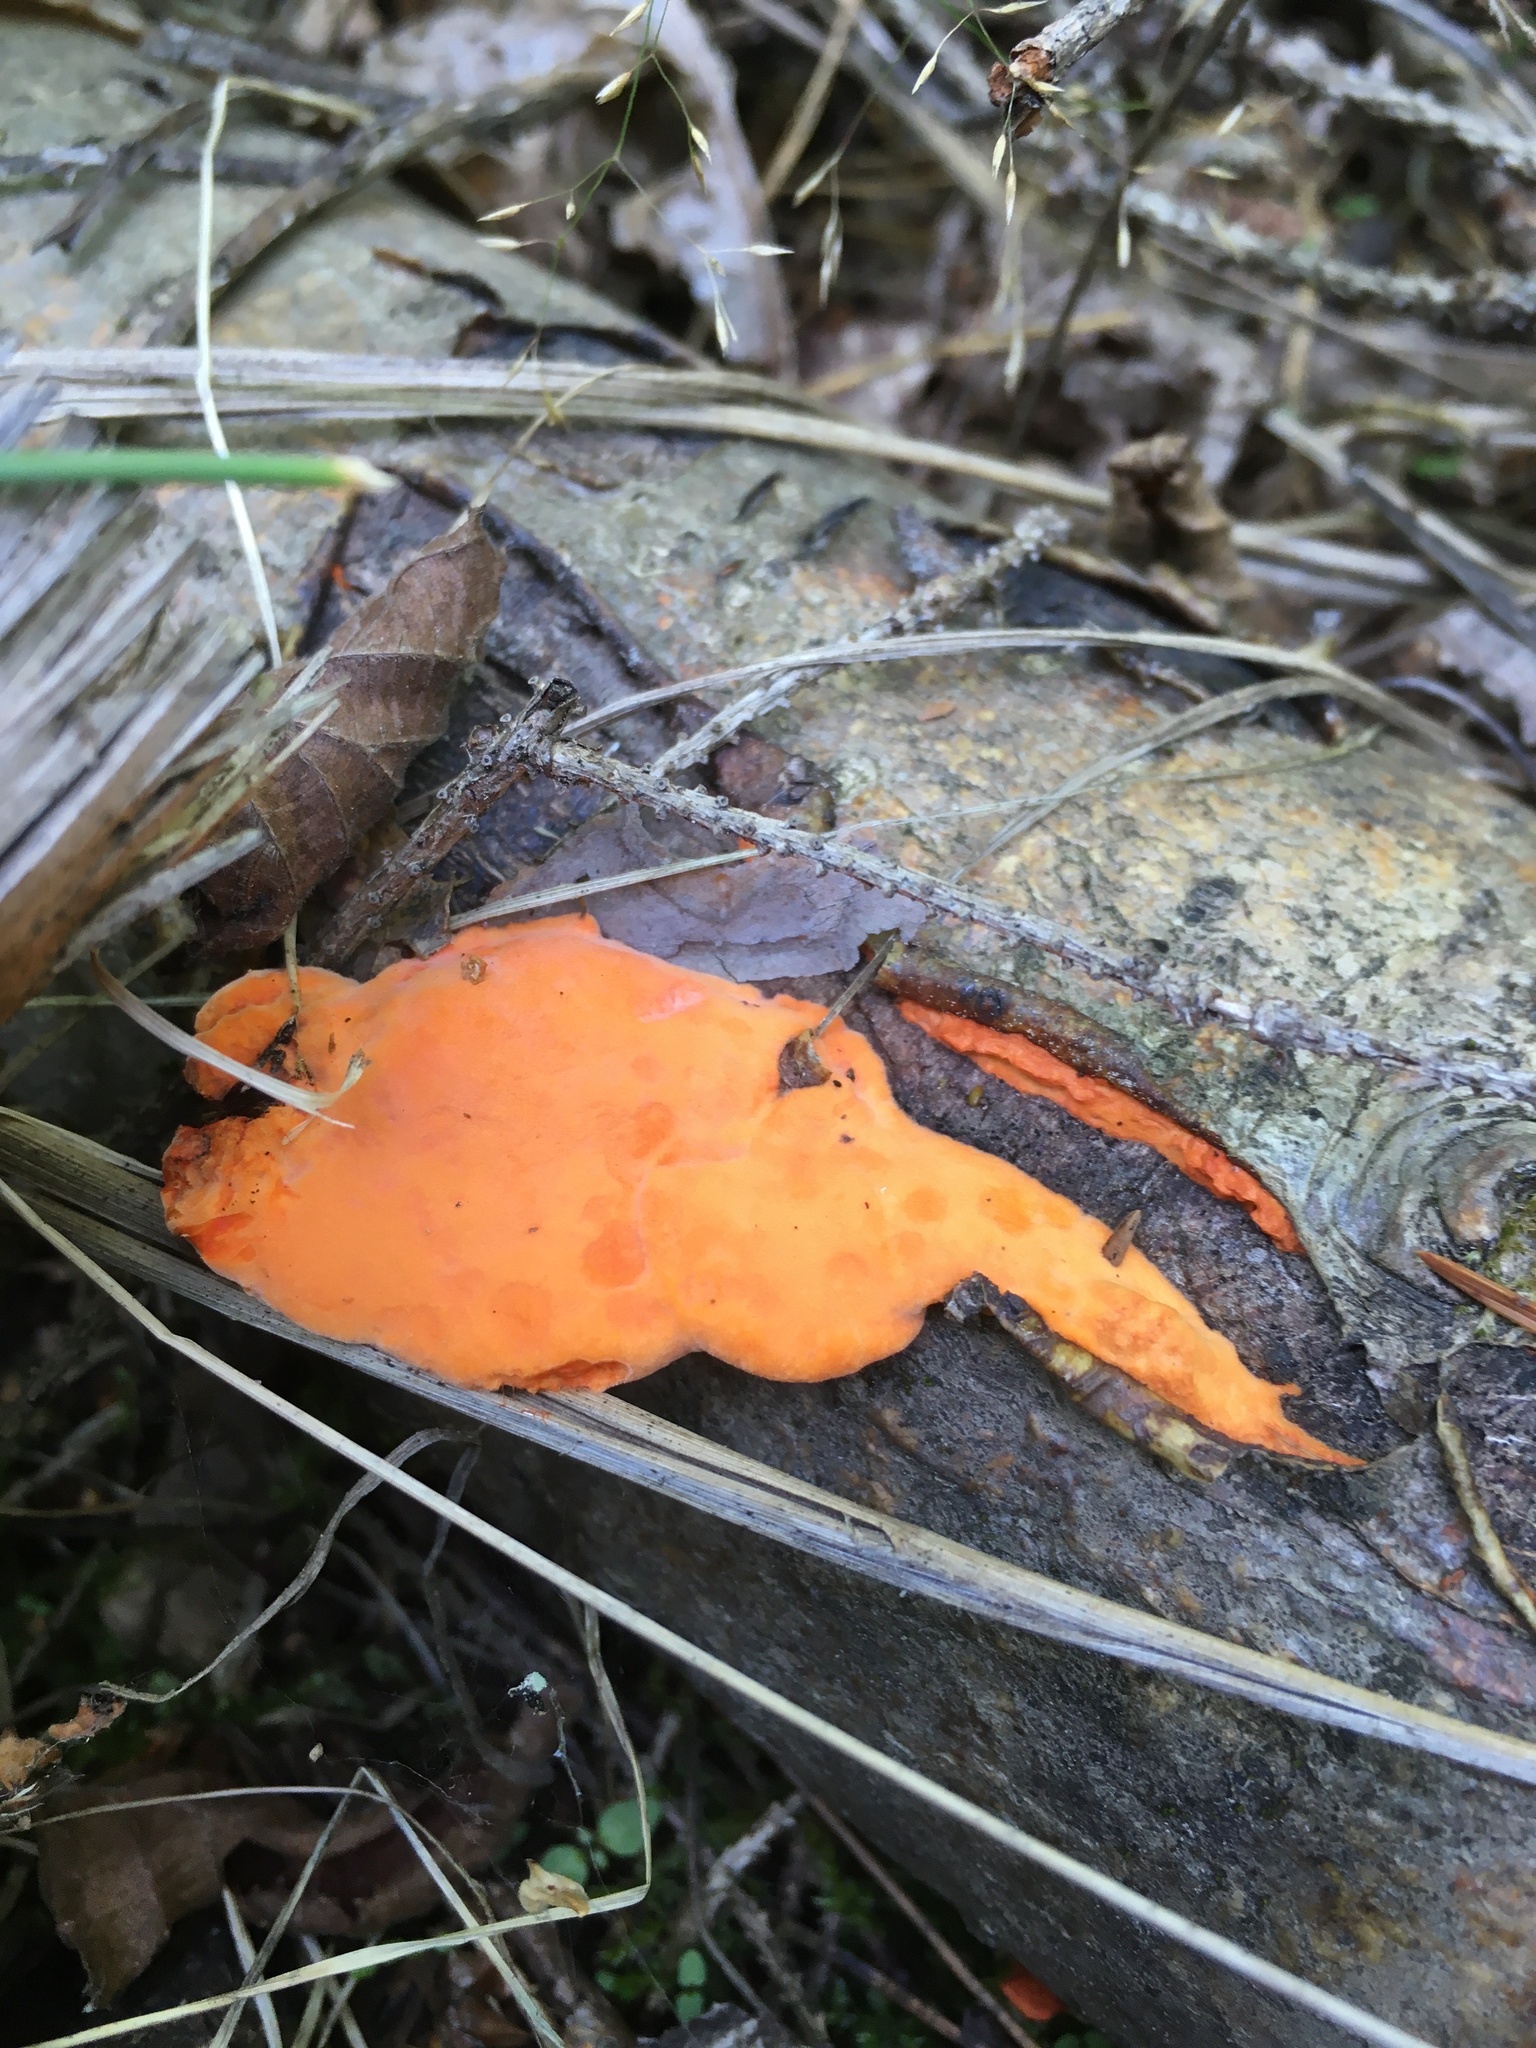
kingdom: Fungi
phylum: Basidiomycota
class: Agaricomycetes
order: Polyporales
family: Polyporaceae
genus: Trametes
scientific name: Trametes cinnabarina
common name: Northern cinnabar polypore
